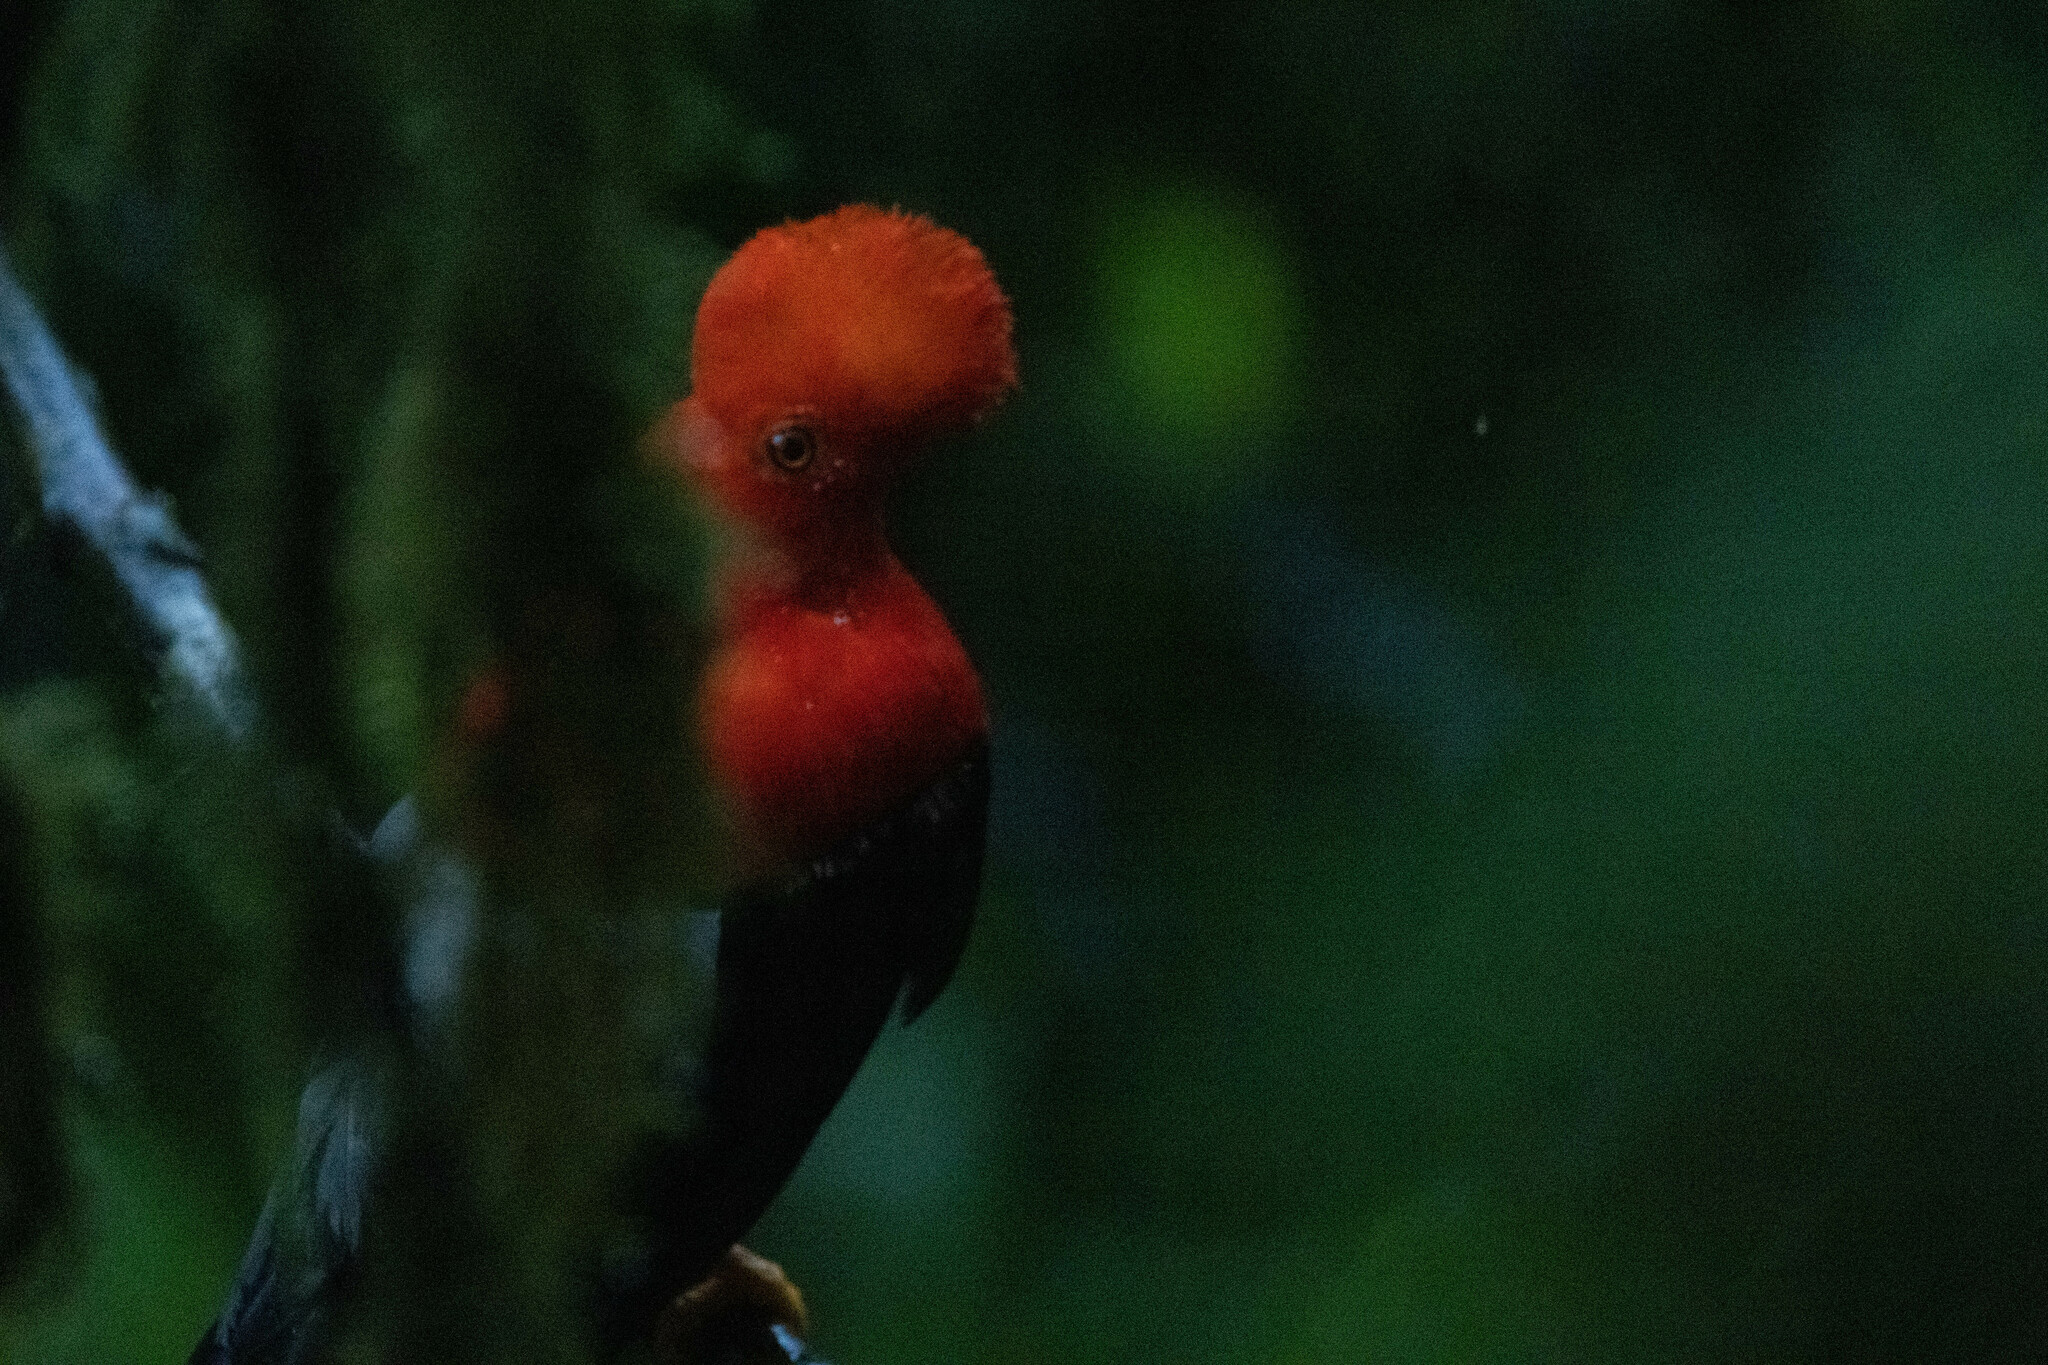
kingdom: Animalia
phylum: Chordata
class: Aves
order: Passeriformes
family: Cotingidae
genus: Rupicola
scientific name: Rupicola peruvianus
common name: Andean cock-of-the-rock
